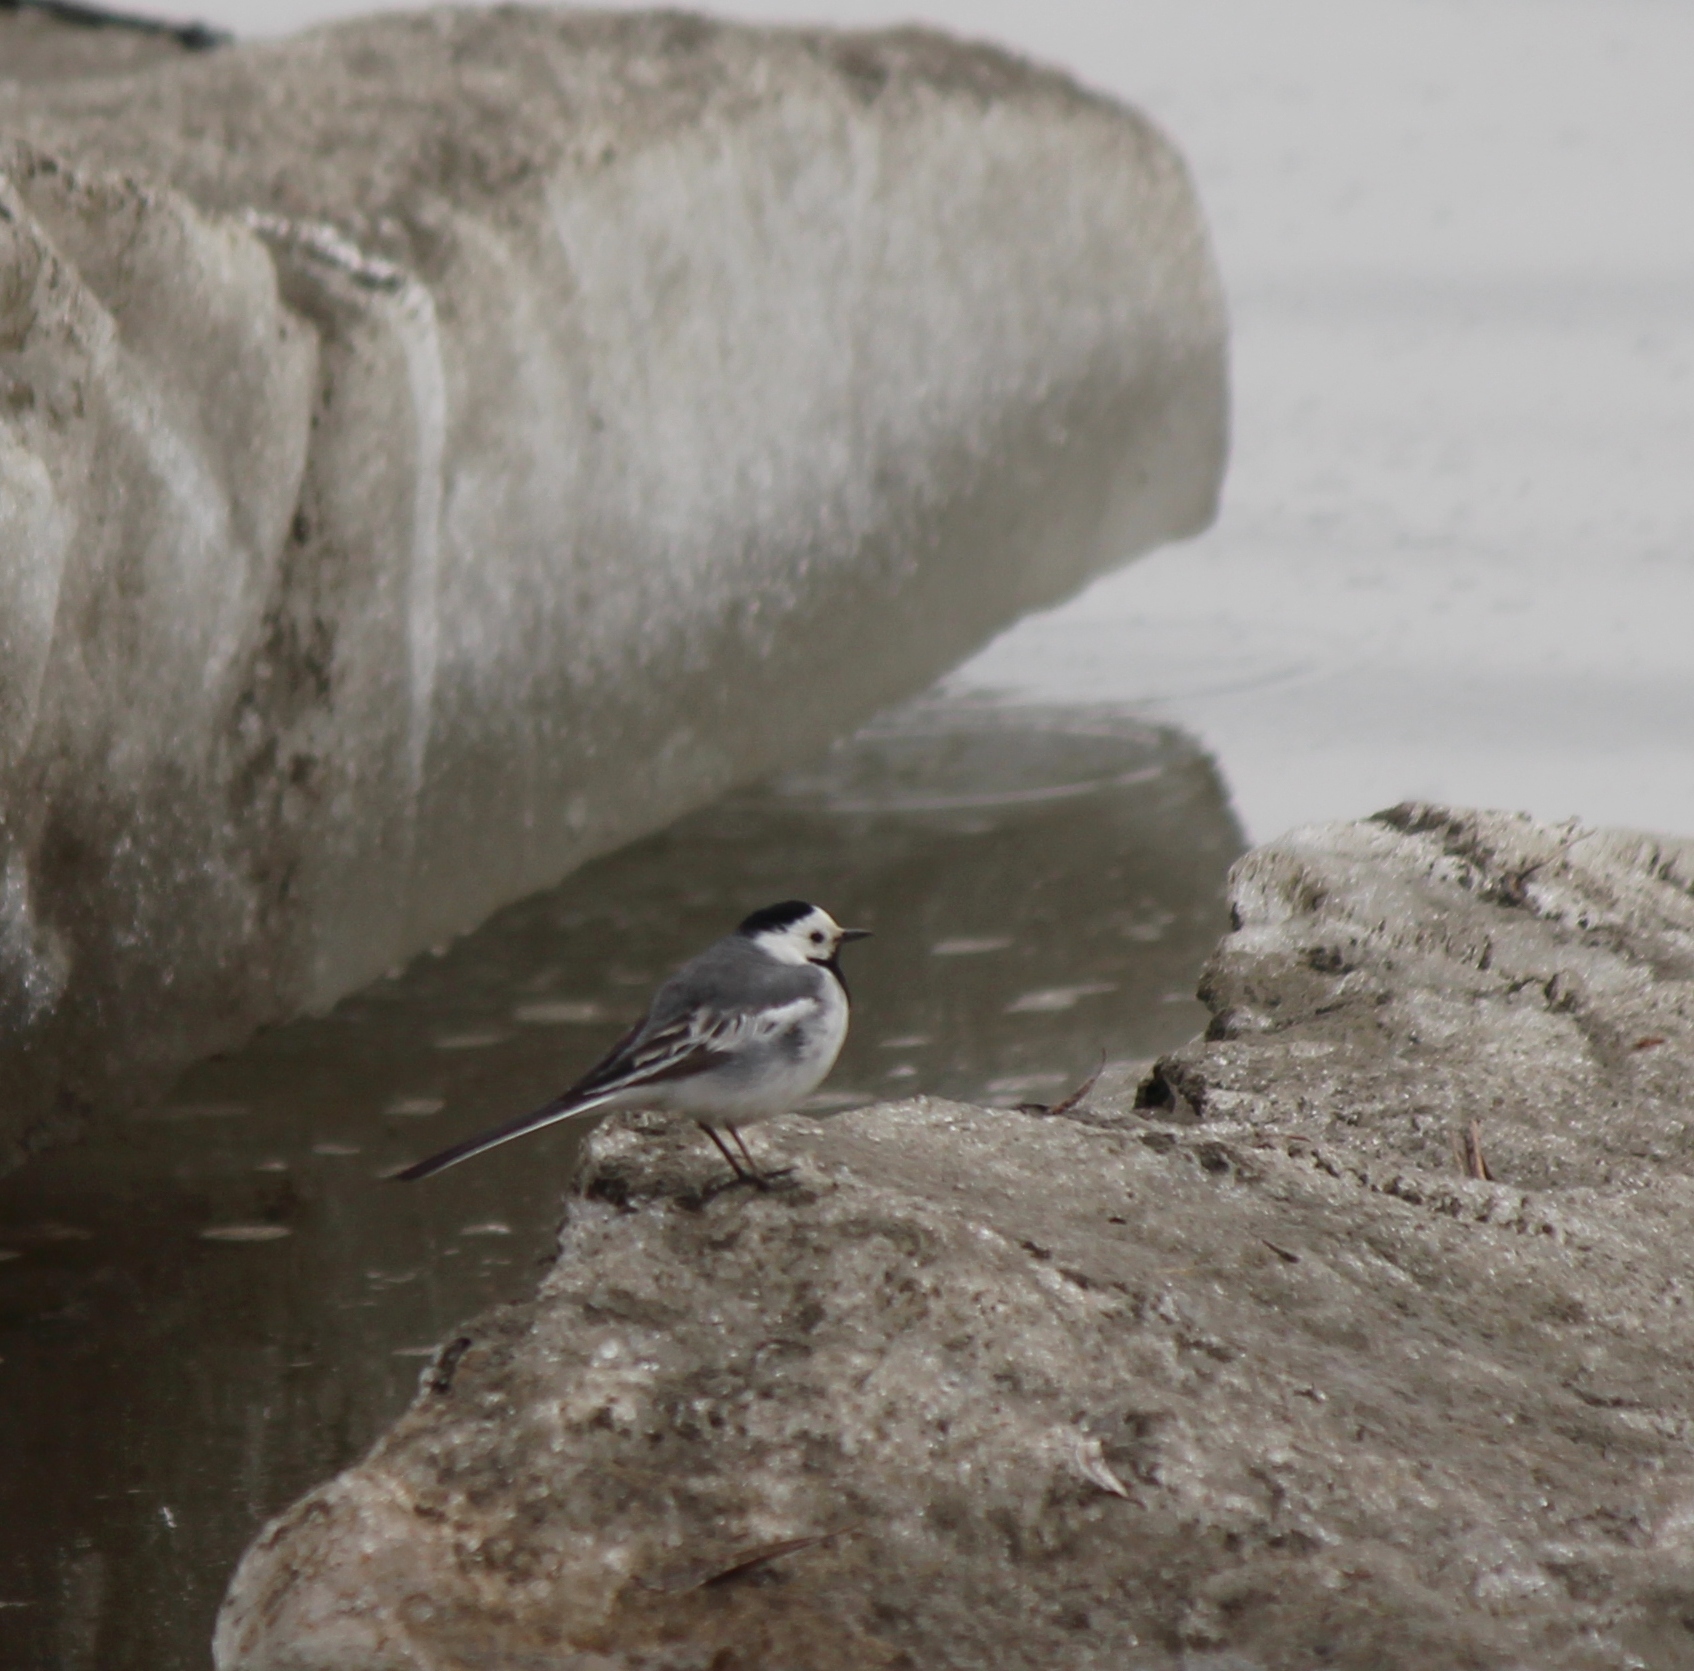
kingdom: Animalia
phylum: Chordata
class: Aves
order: Passeriformes
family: Motacillidae
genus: Motacilla
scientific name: Motacilla alba
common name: White wagtail
